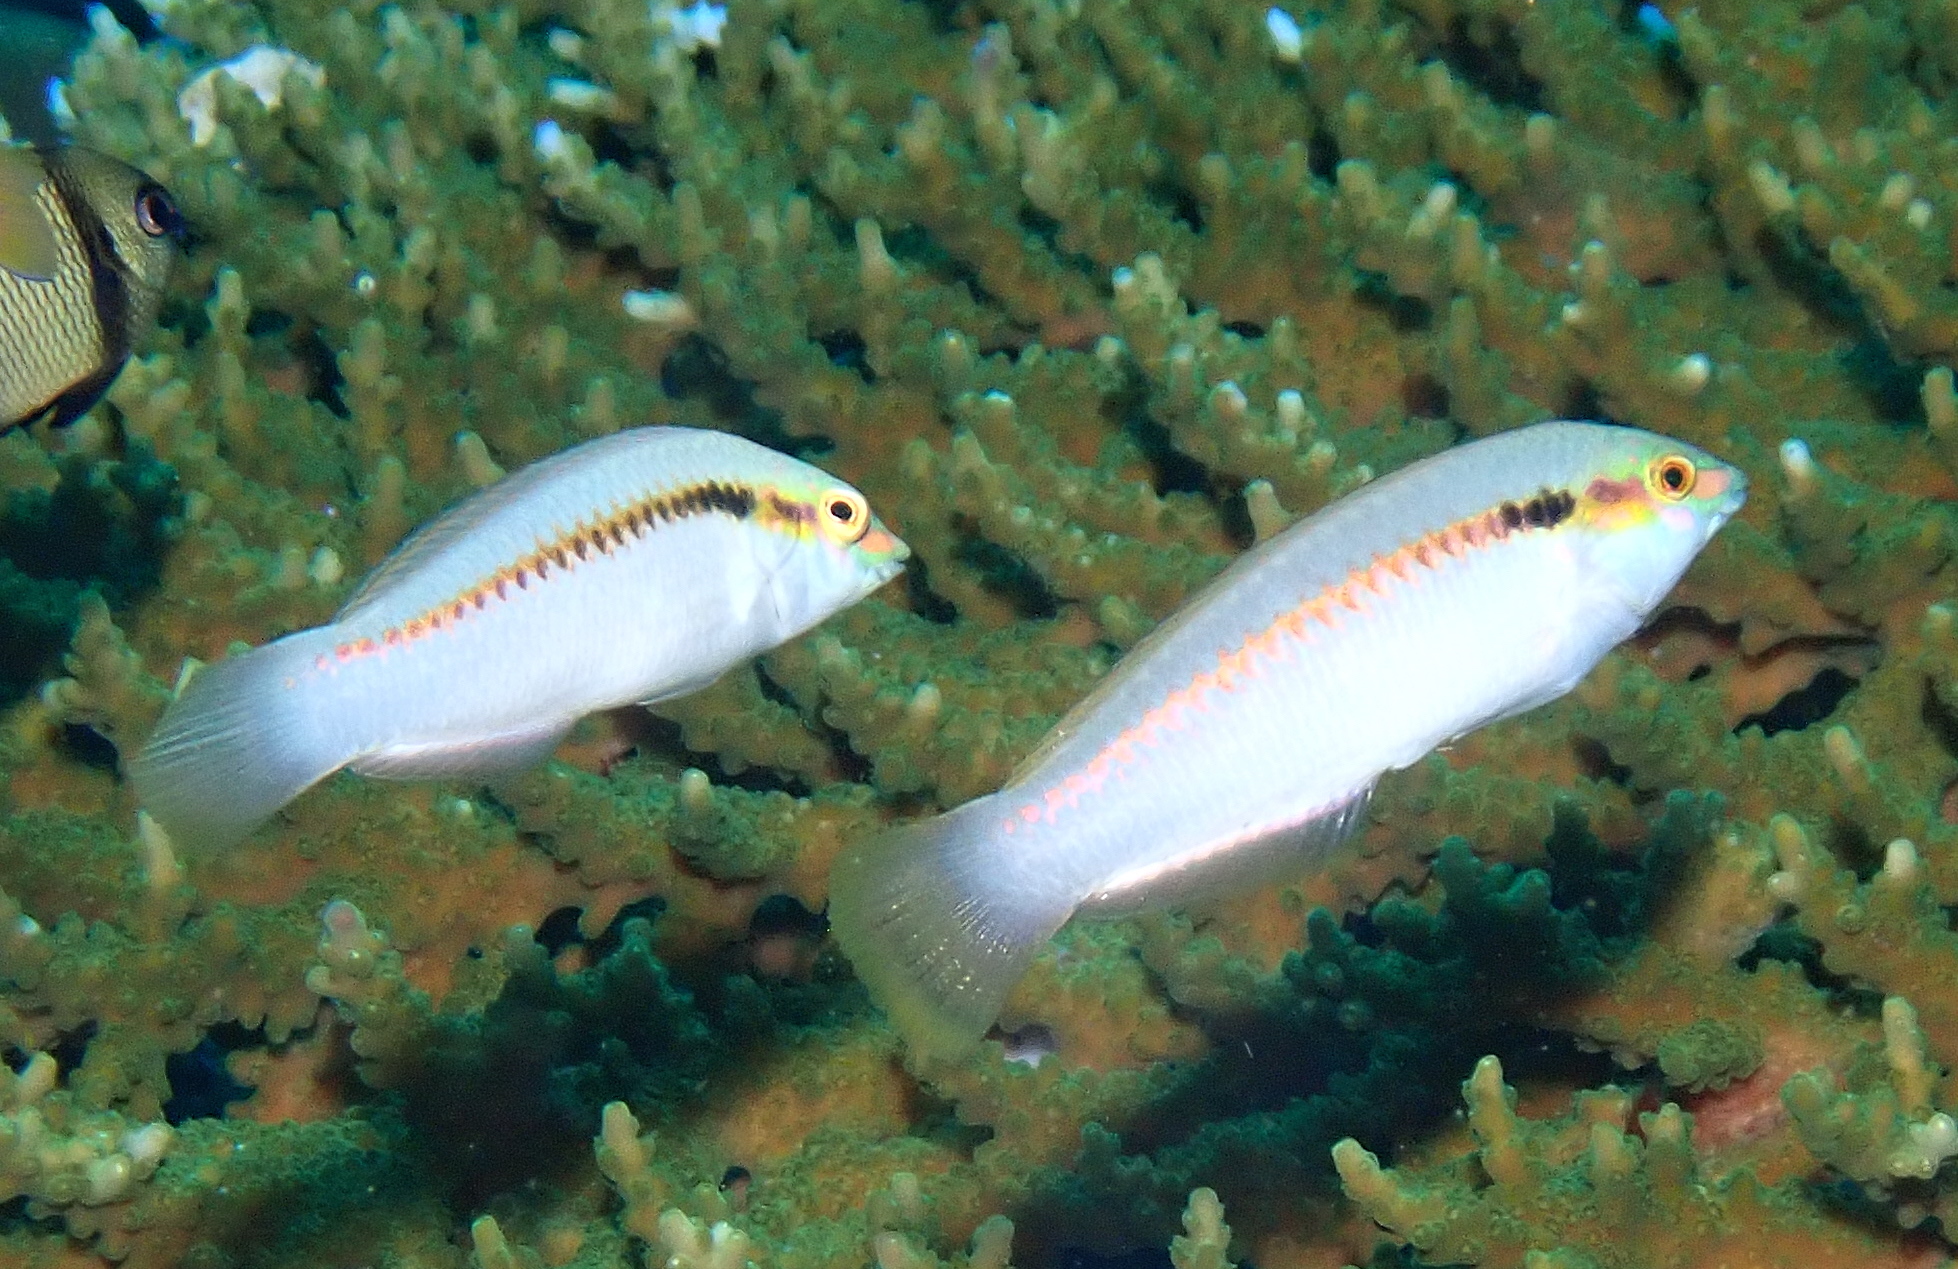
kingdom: Animalia
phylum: Chordata
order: Perciformes
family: Labridae
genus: Halichoeres
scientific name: Halichoeres scapularis
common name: Brownbanded wrasse
